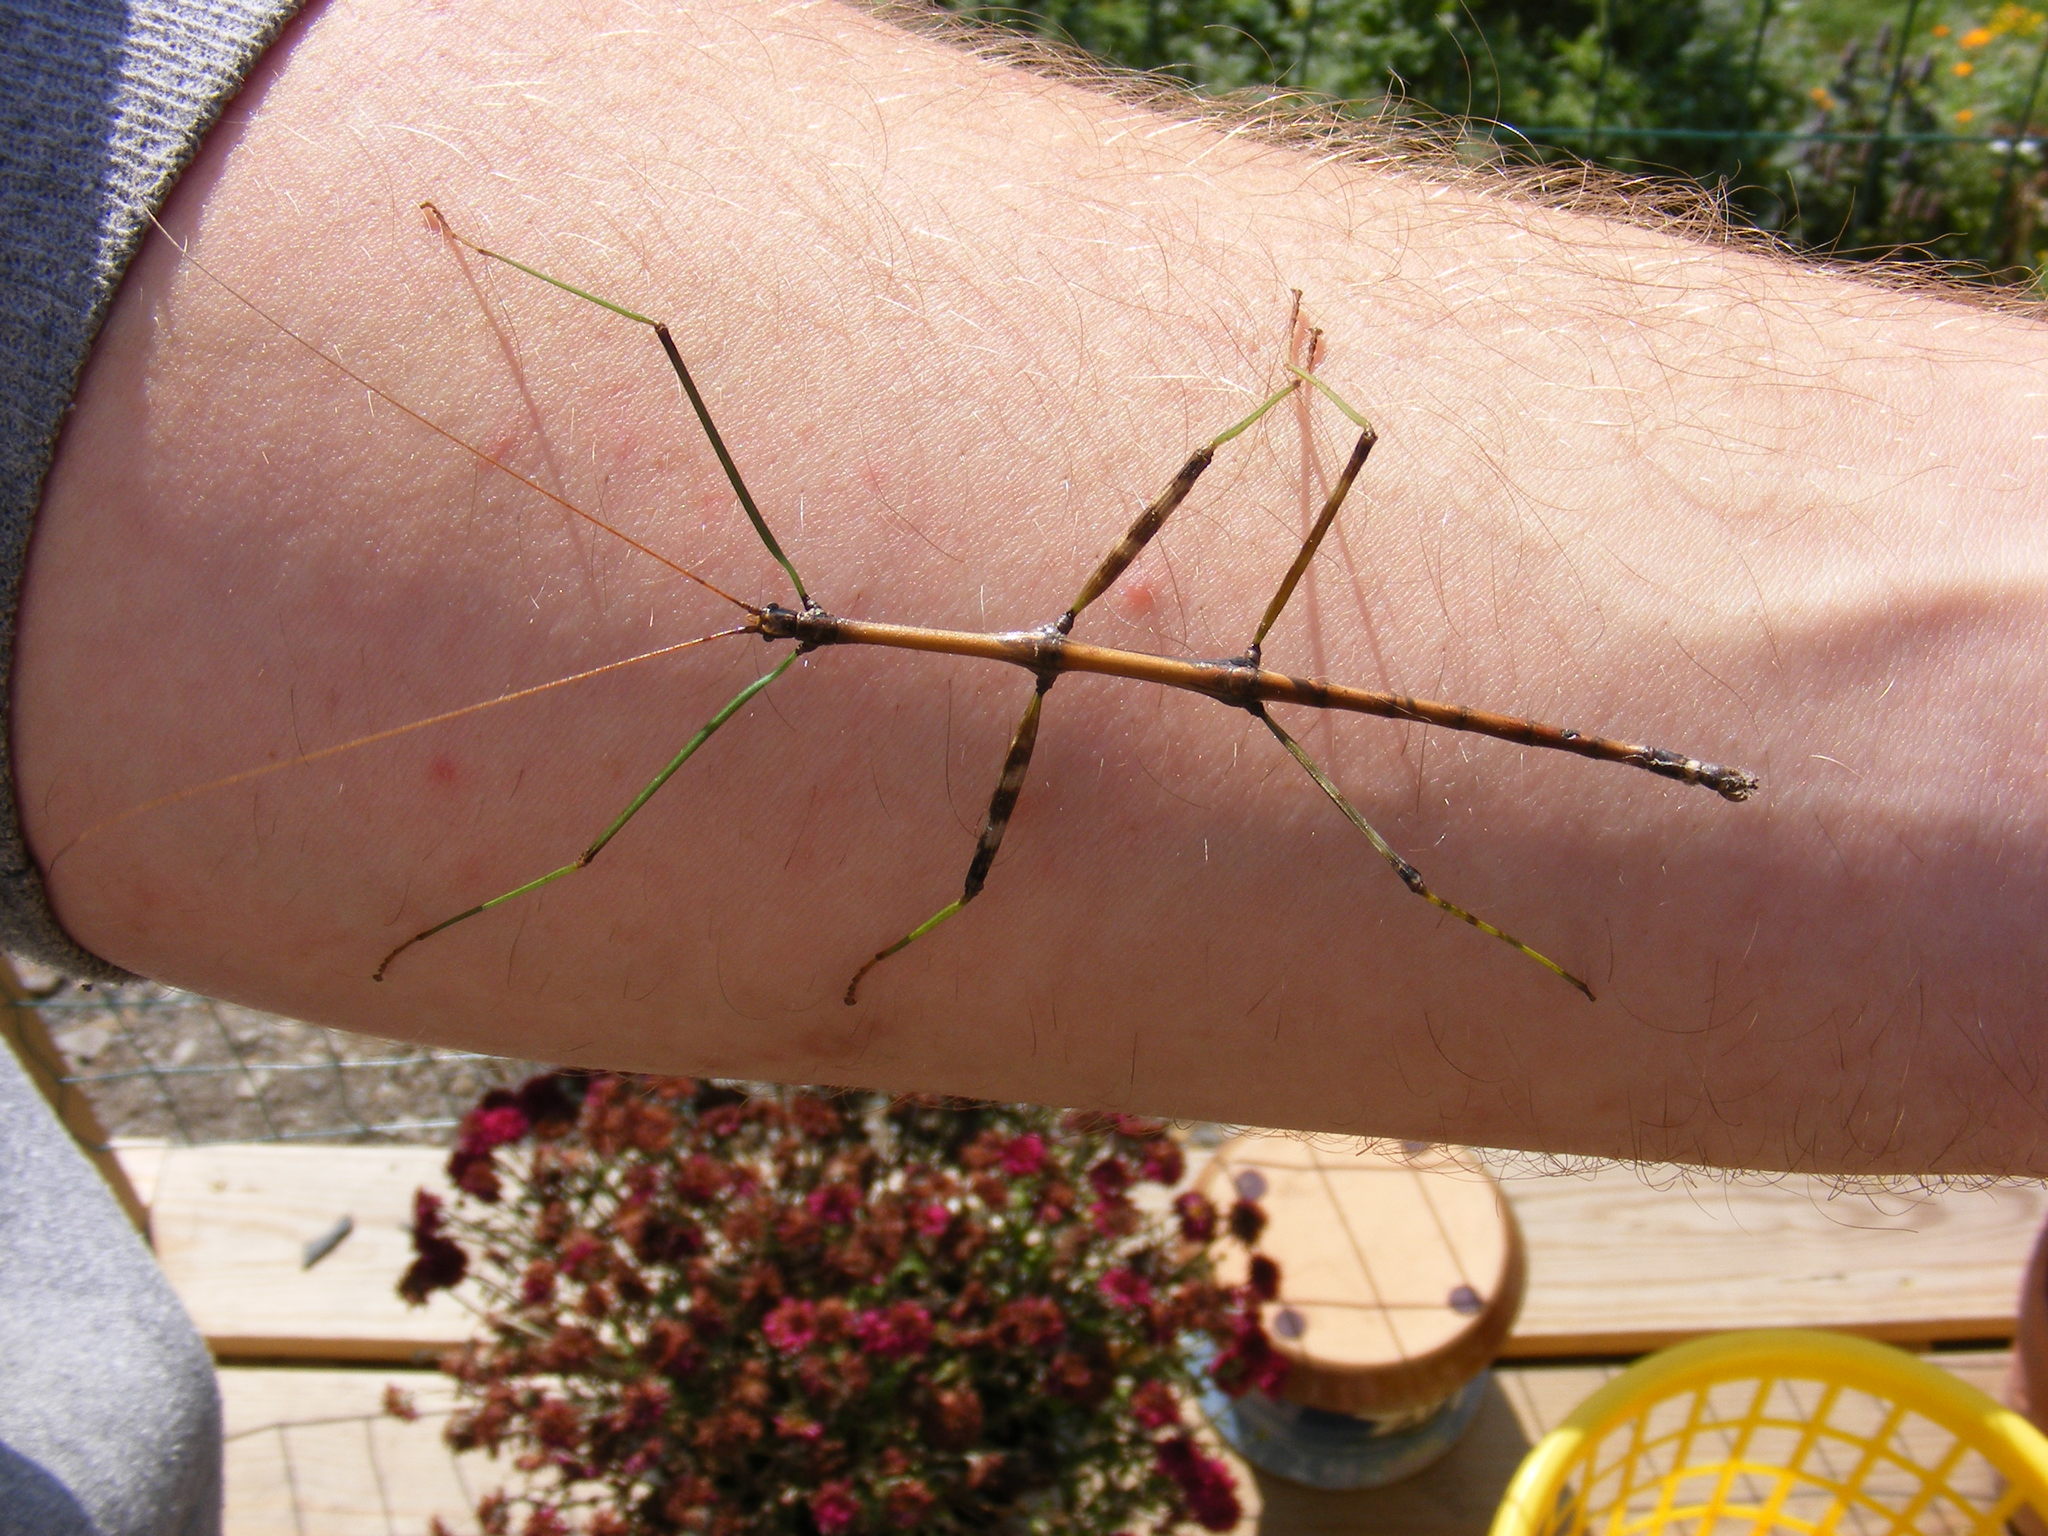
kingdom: Animalia
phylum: Arthropoda
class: Insecta
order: Phasmida
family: Diapheromeridae
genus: Diapheromera
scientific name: Diapheromera femorata
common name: Common american walkingstick
